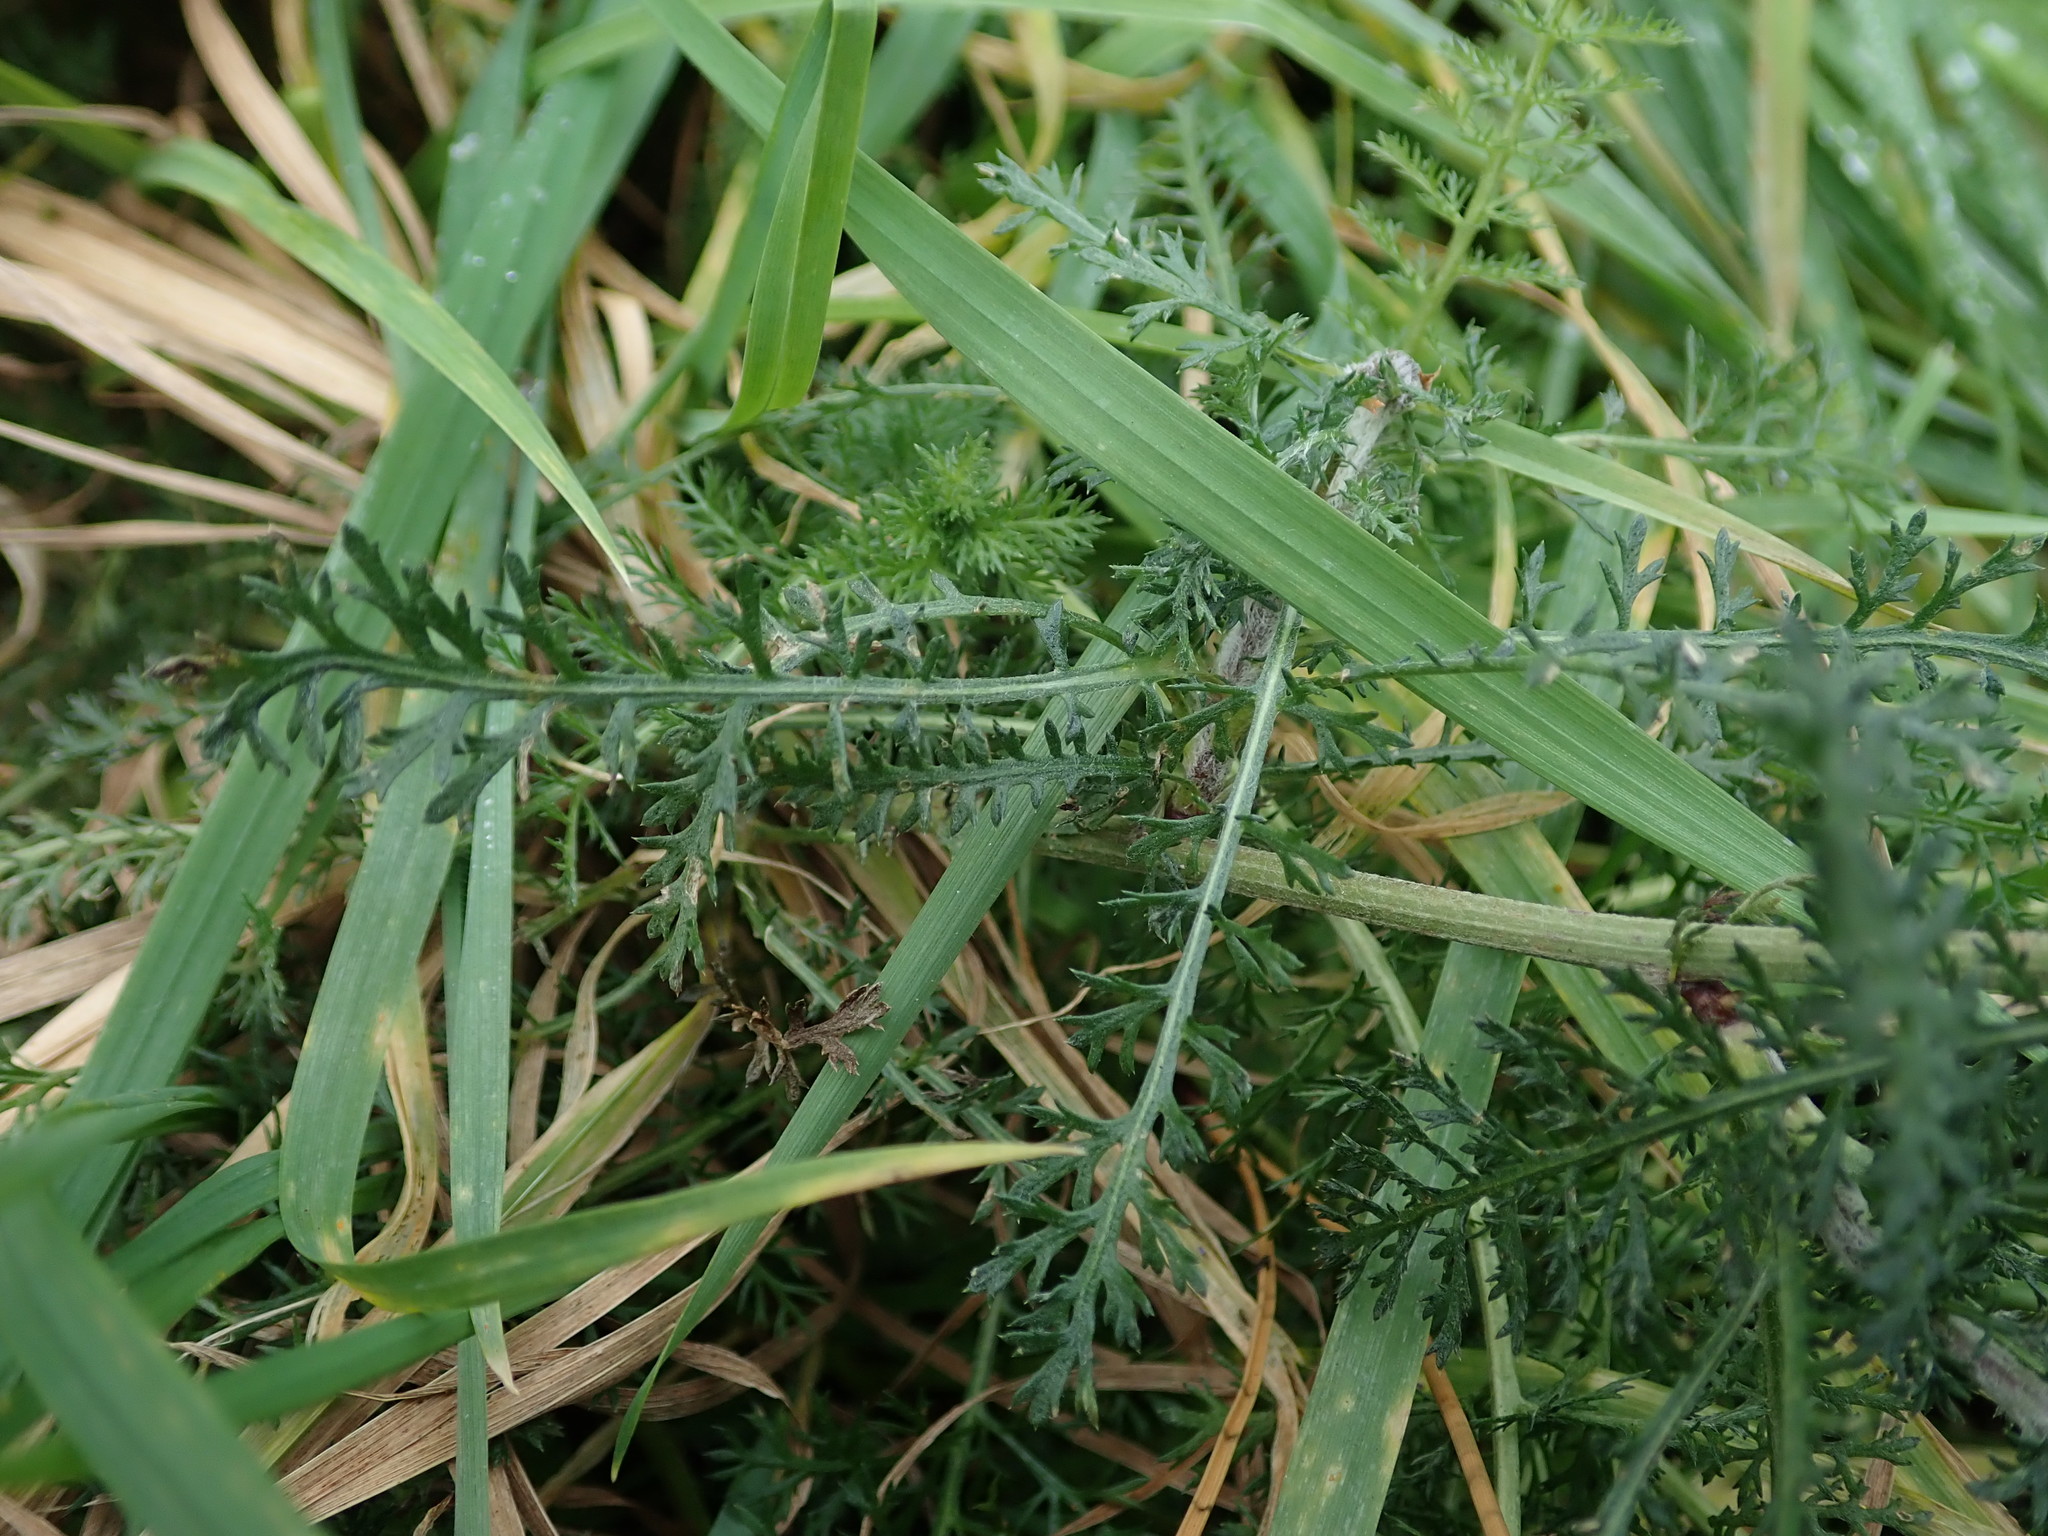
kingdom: Plantae
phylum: Tracheophyta
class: Magnoliopsida
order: Asterales
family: Asteraceae
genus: Achillea
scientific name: Achillea millefolium
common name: Yarrow
